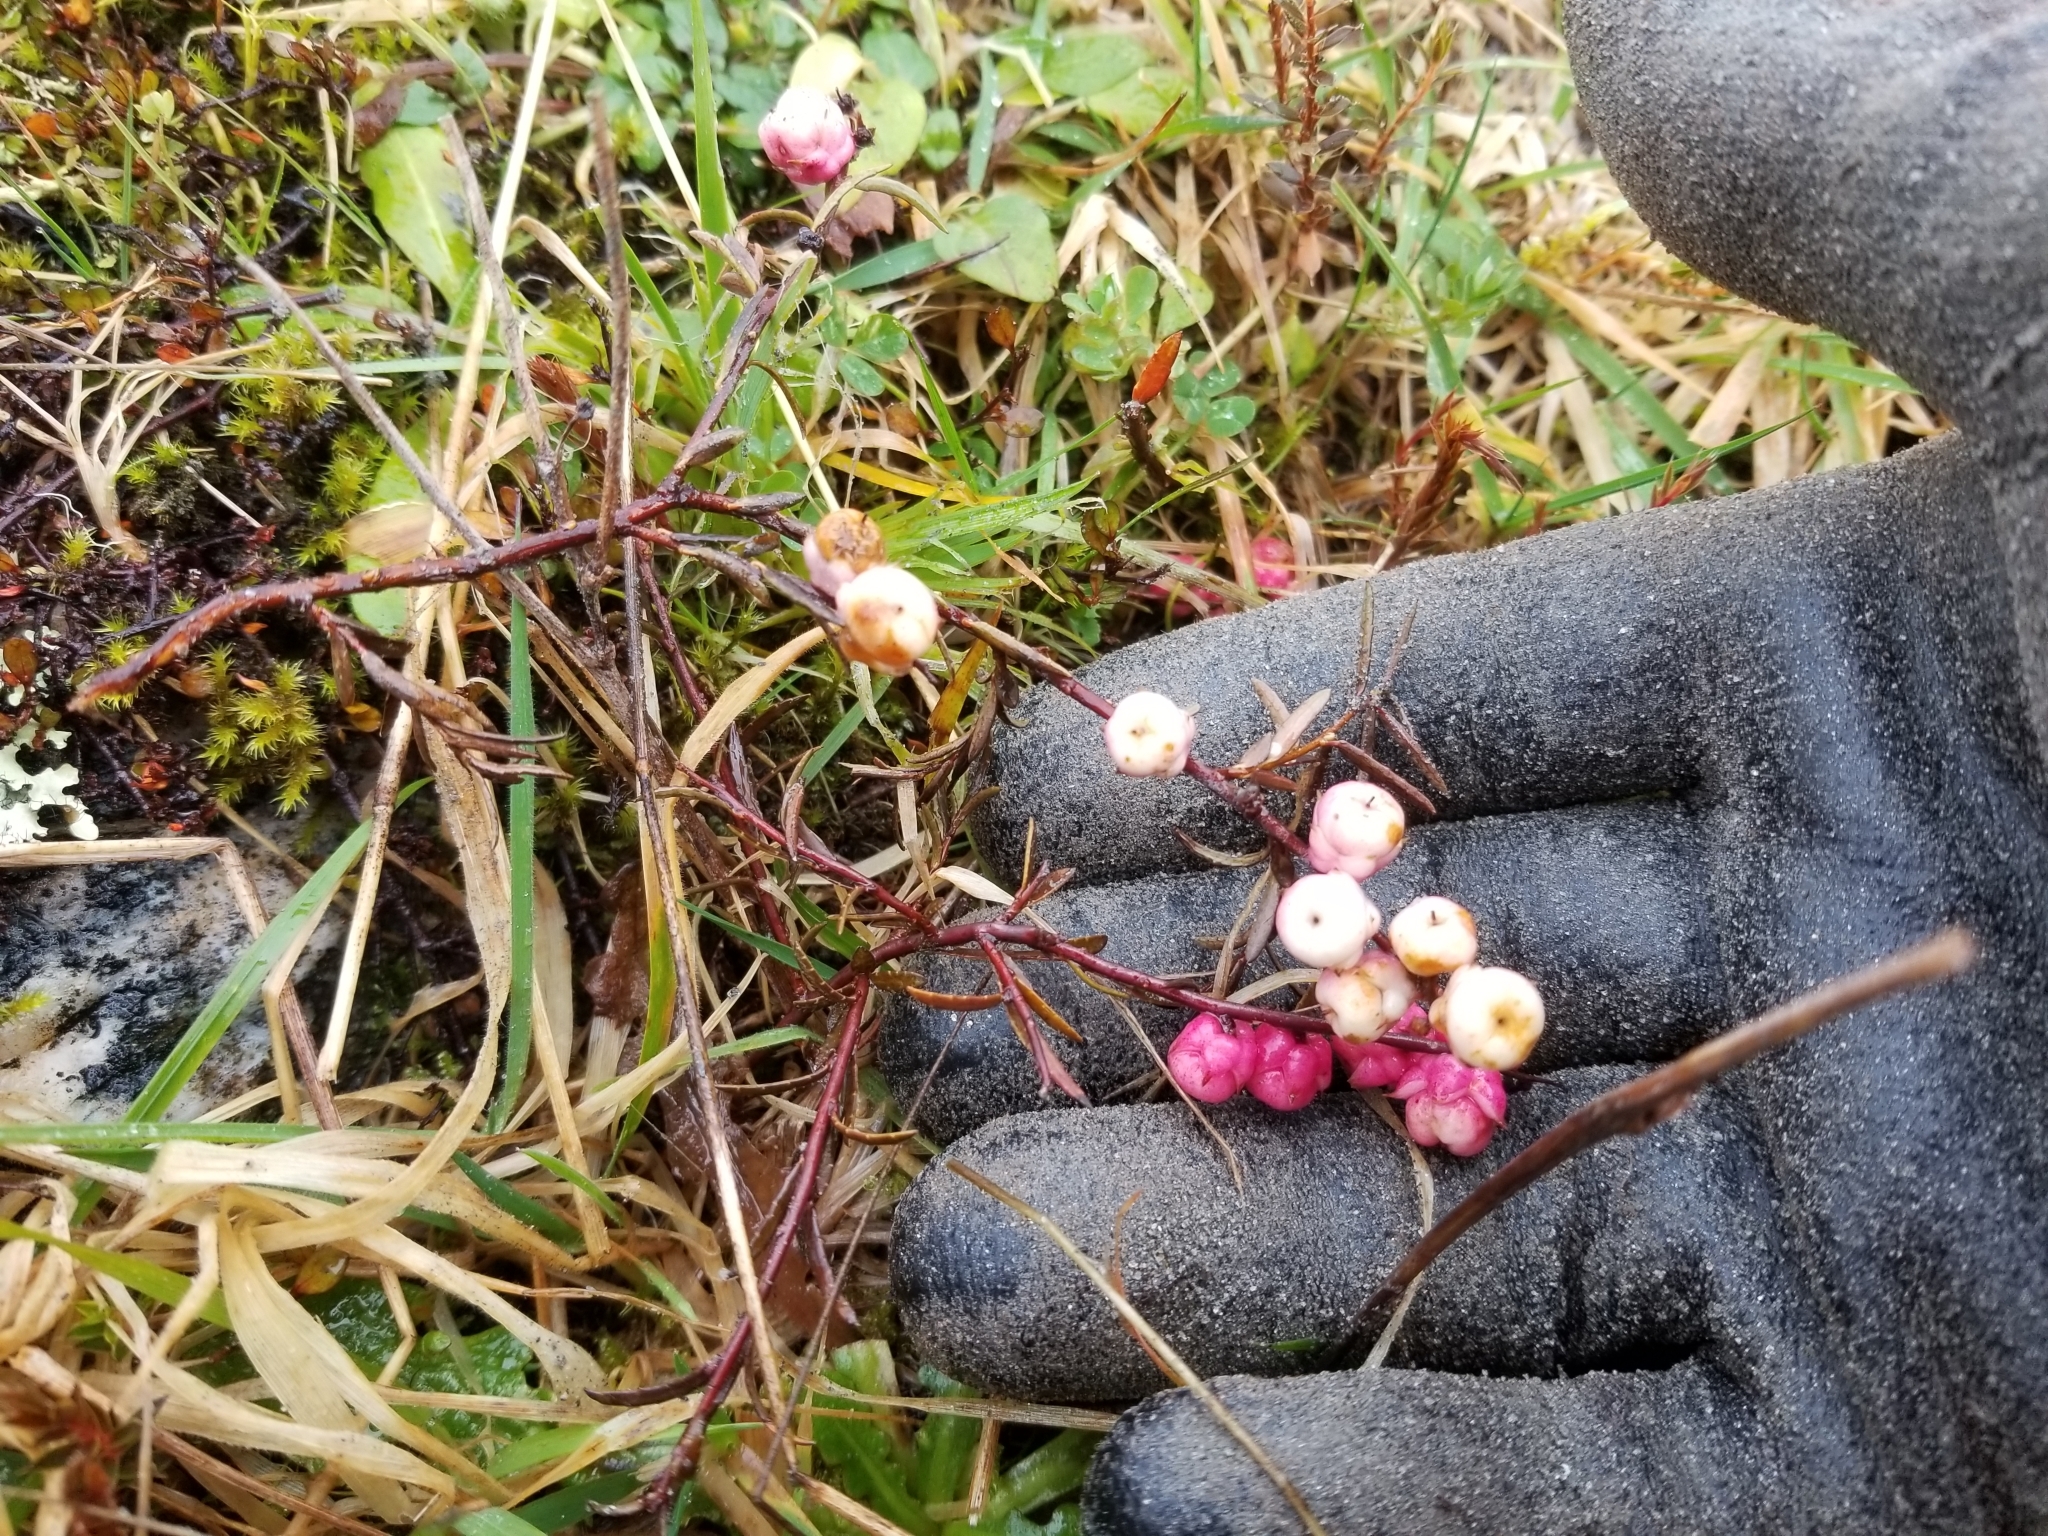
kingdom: Plantae
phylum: Tracheophyta
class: Magnoliopsida
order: Ericales
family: Ericaceae
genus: Gaultheria
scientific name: Gaultheria macrostigma
